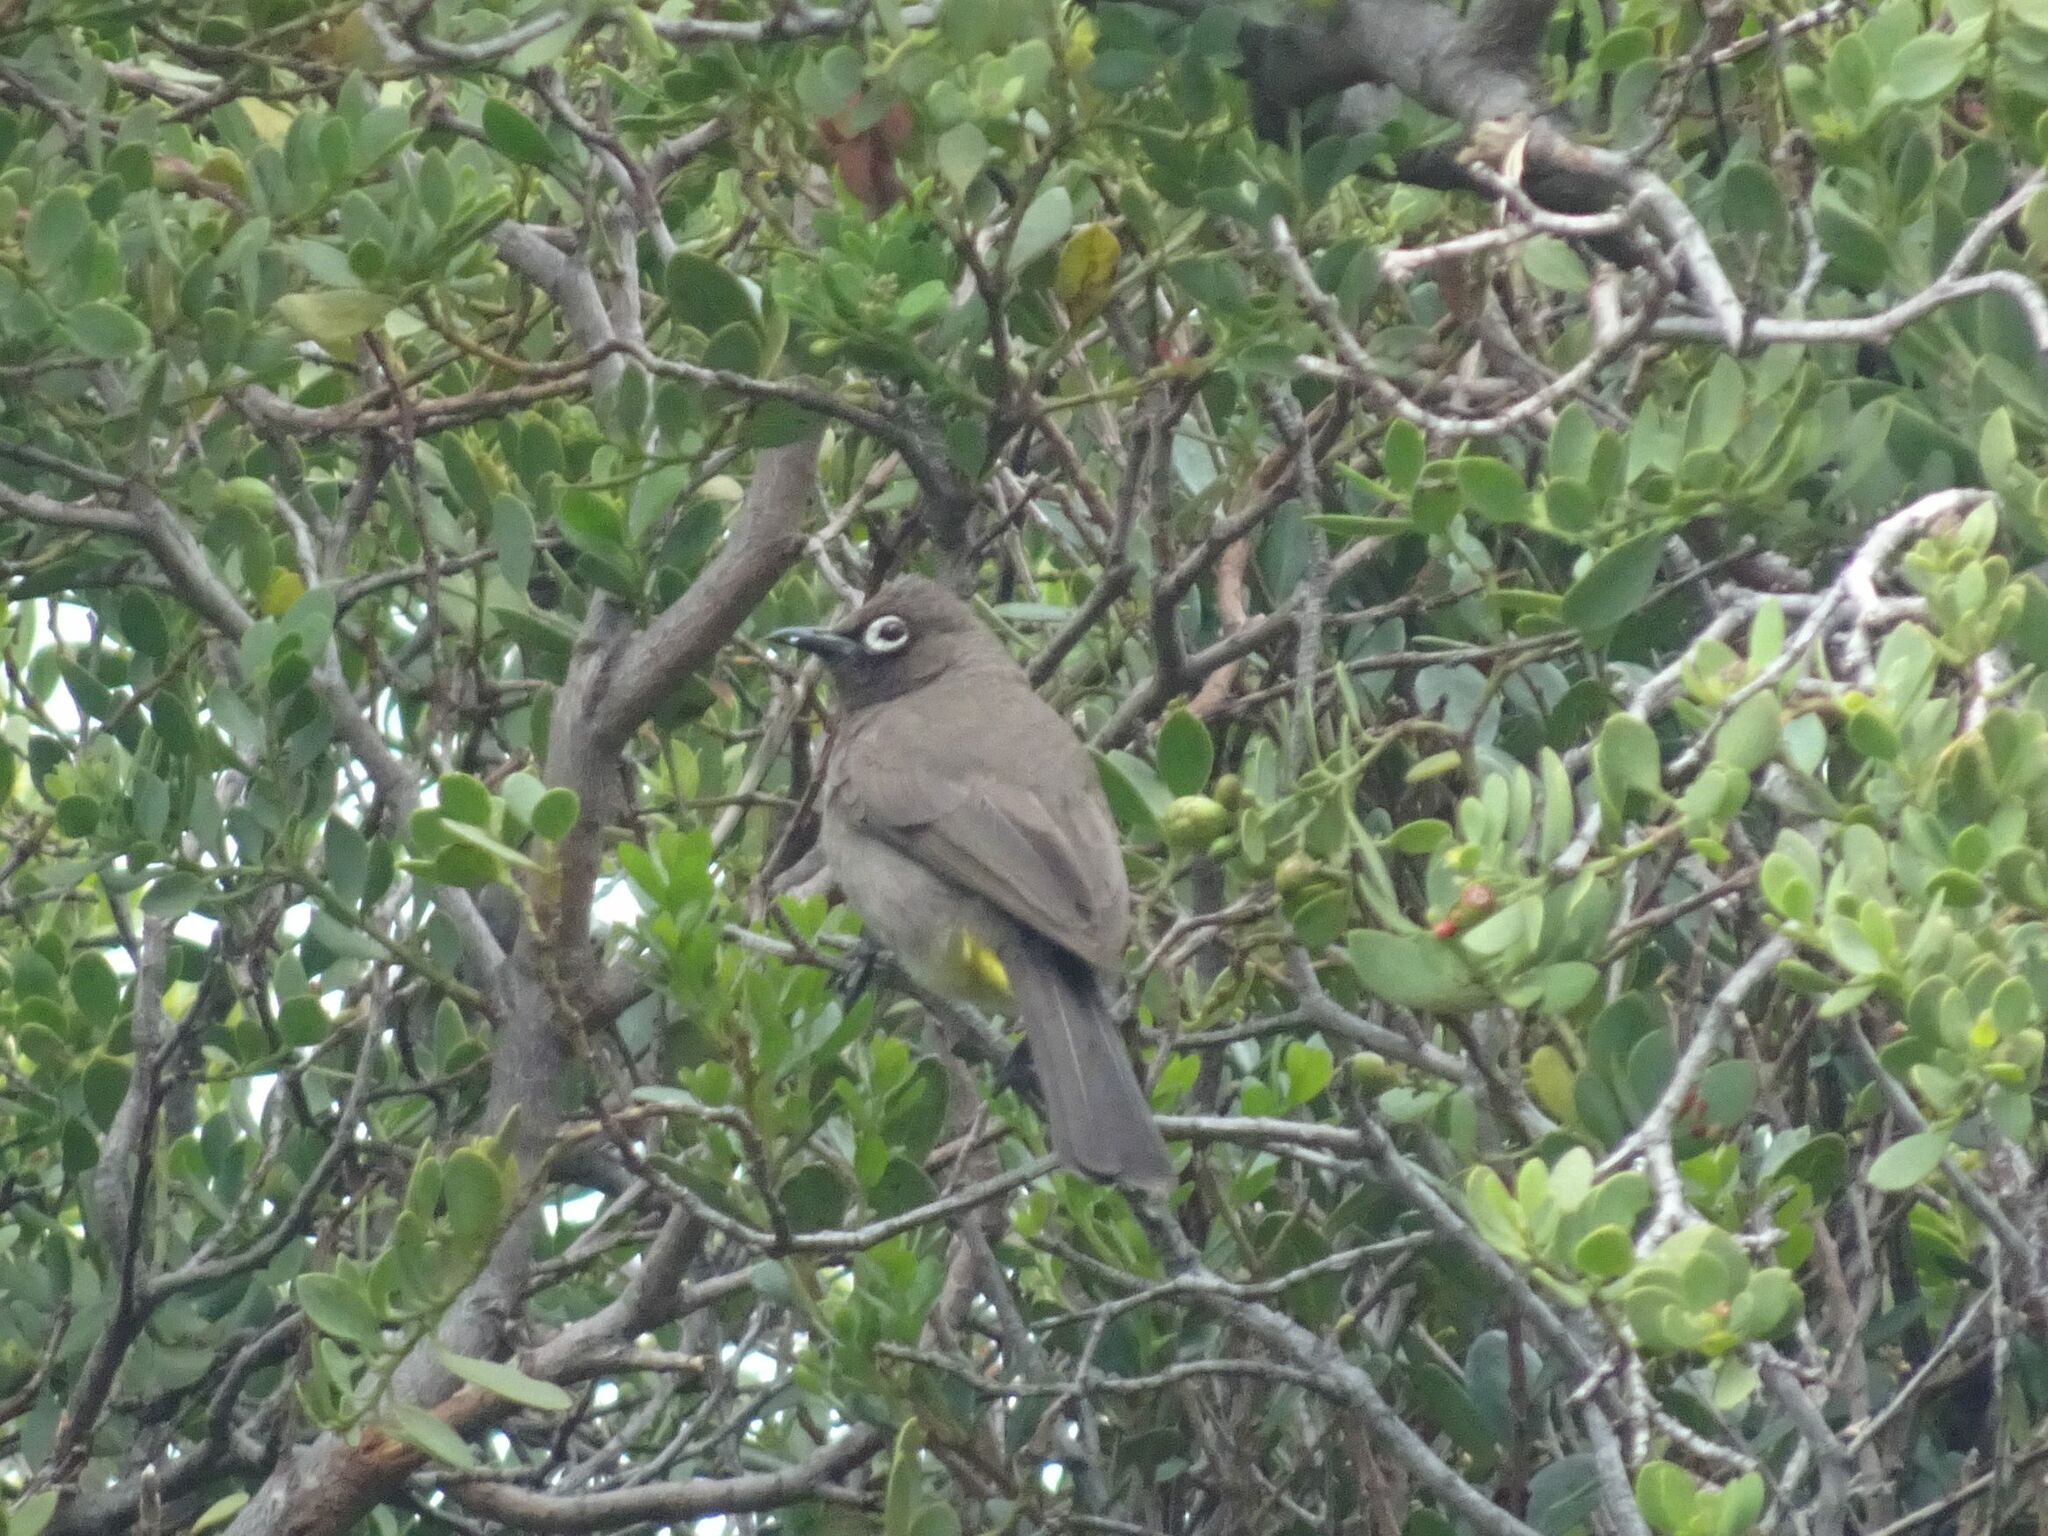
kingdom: Animalia
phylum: Chordata
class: Aves
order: Passeriformes
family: Pycnonotidae
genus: Pycnonotus
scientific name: Pycnonotus capensis
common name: Cape bulbul
